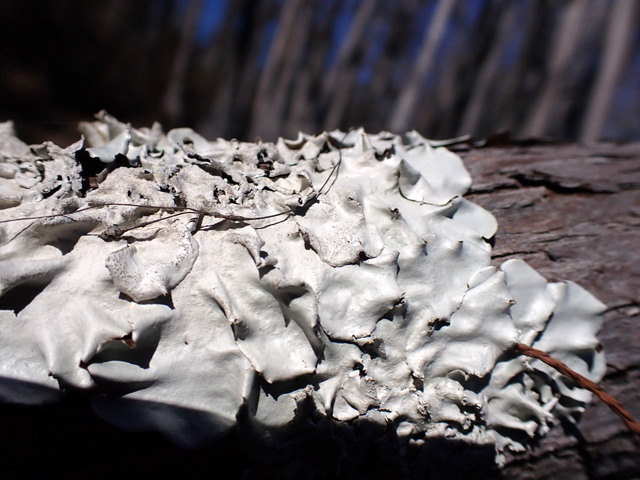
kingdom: Fungi
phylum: Ascomycota
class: Lecanoromycetes
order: Lecanorales
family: Parmeliaceae
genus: Parmotrema
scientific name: Parmotrema tinctorum
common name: Old gray ruffles
